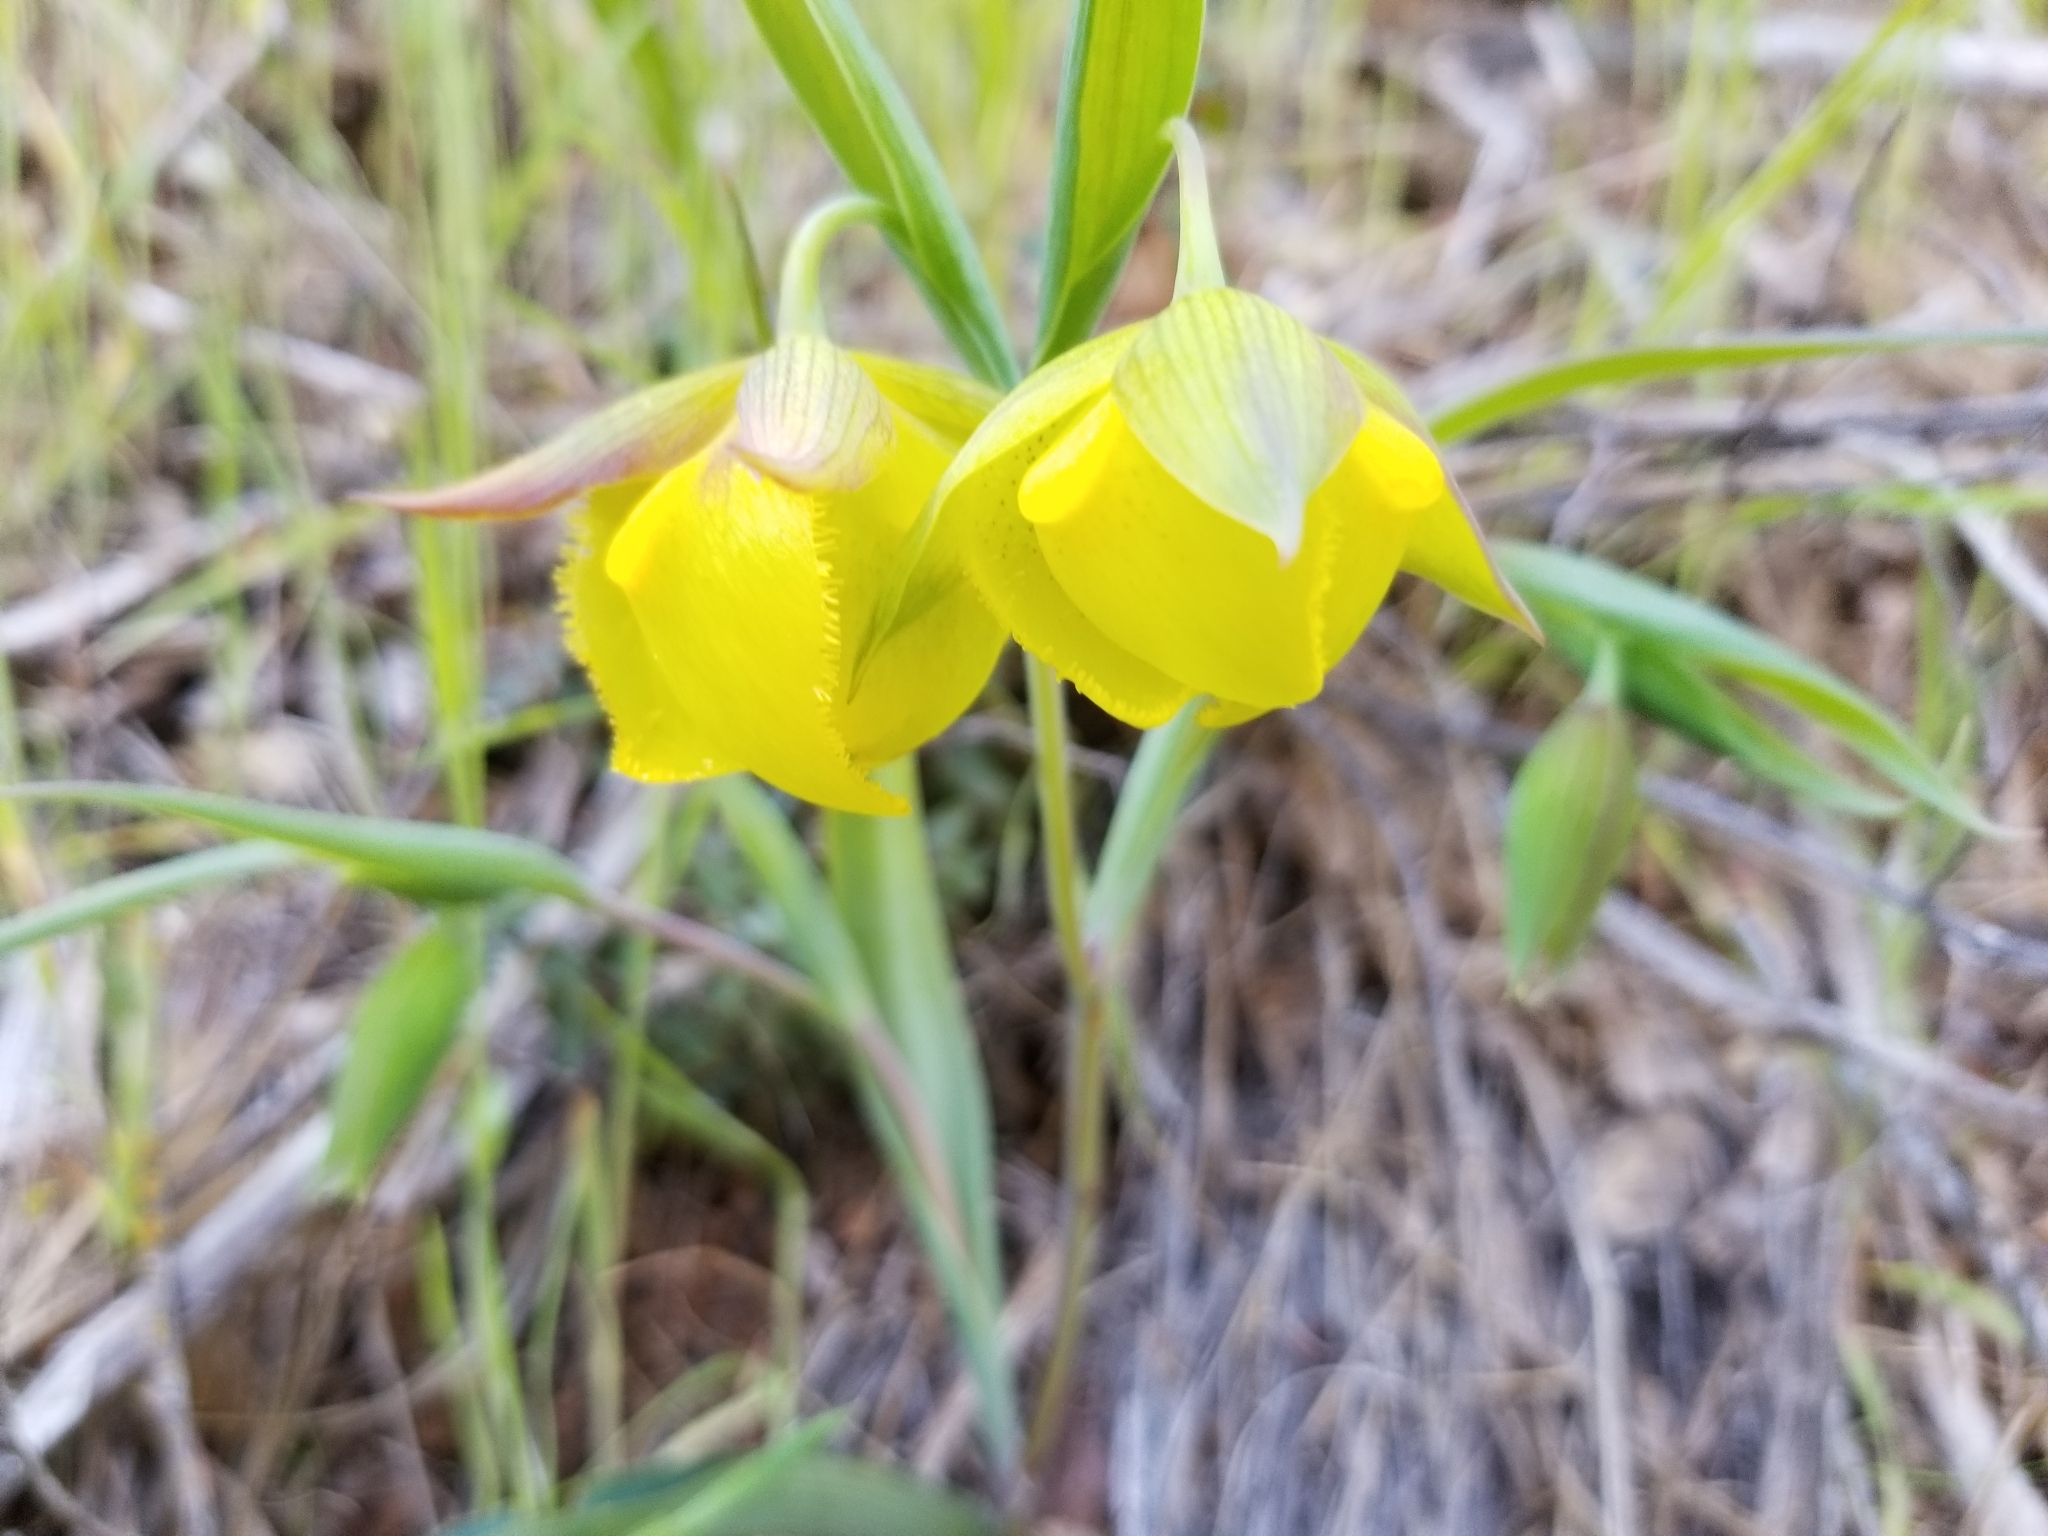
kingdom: Plantae
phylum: Tracheophyta
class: Liliopsida
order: Liliales
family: Liliaceae
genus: Calochortus
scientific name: Calochortus pulchellus
